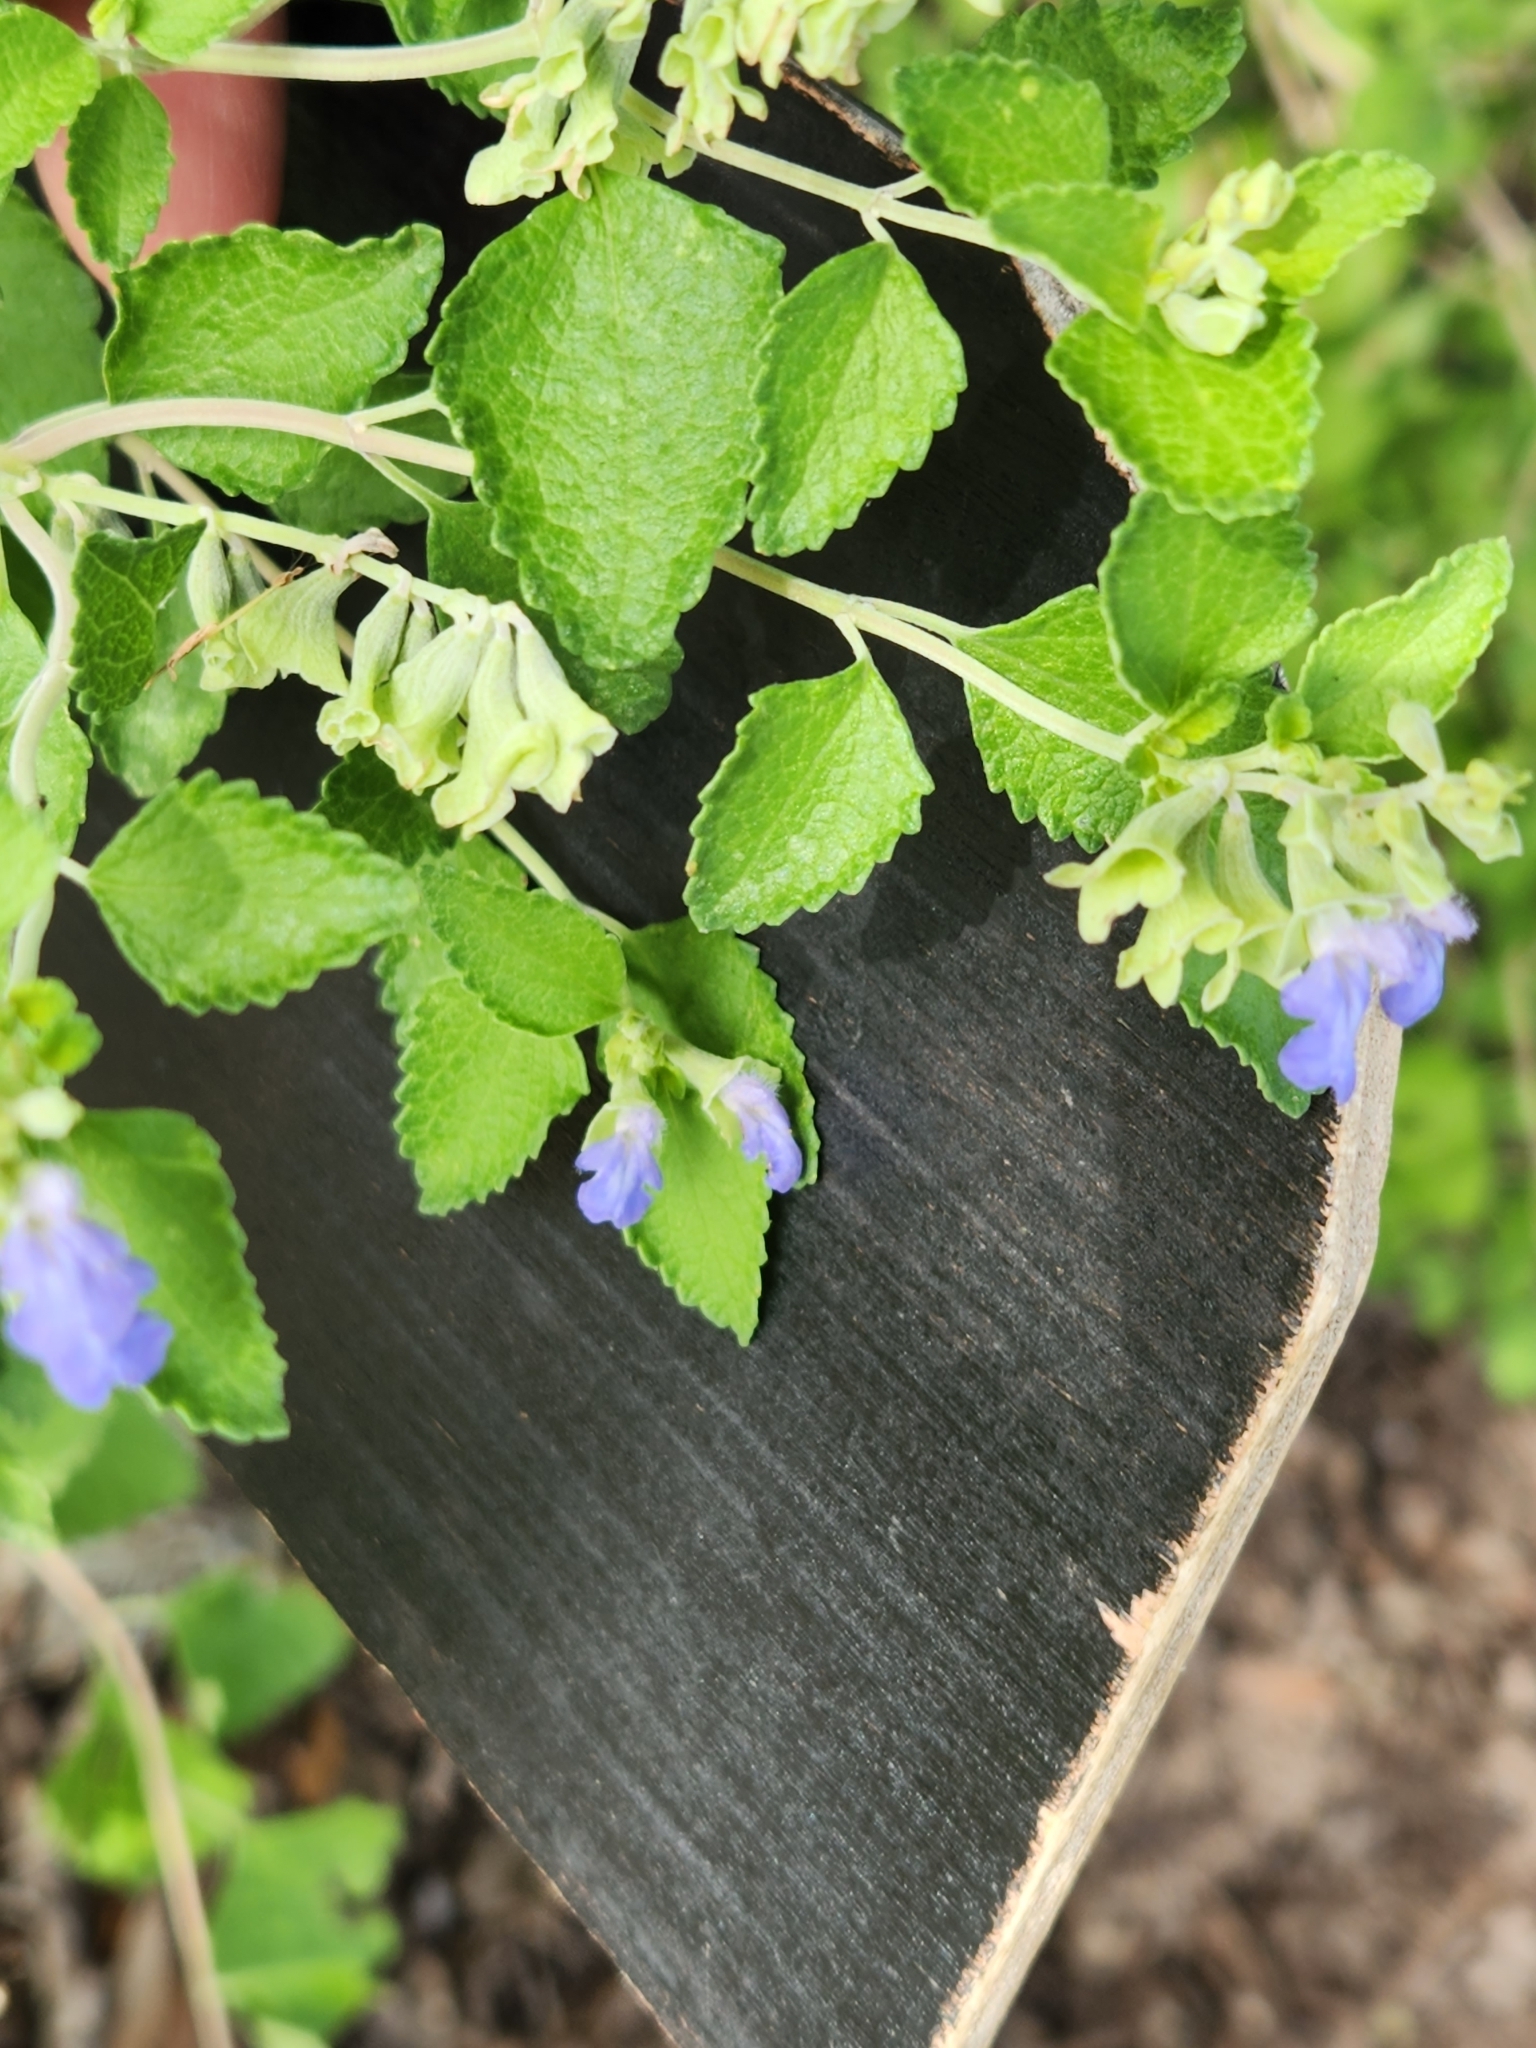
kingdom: Plantae
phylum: Tracheophyta
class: Magnoliopsida
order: Lamiales
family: Lamiaceae
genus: Salvia
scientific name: Salvia ballotiflora
